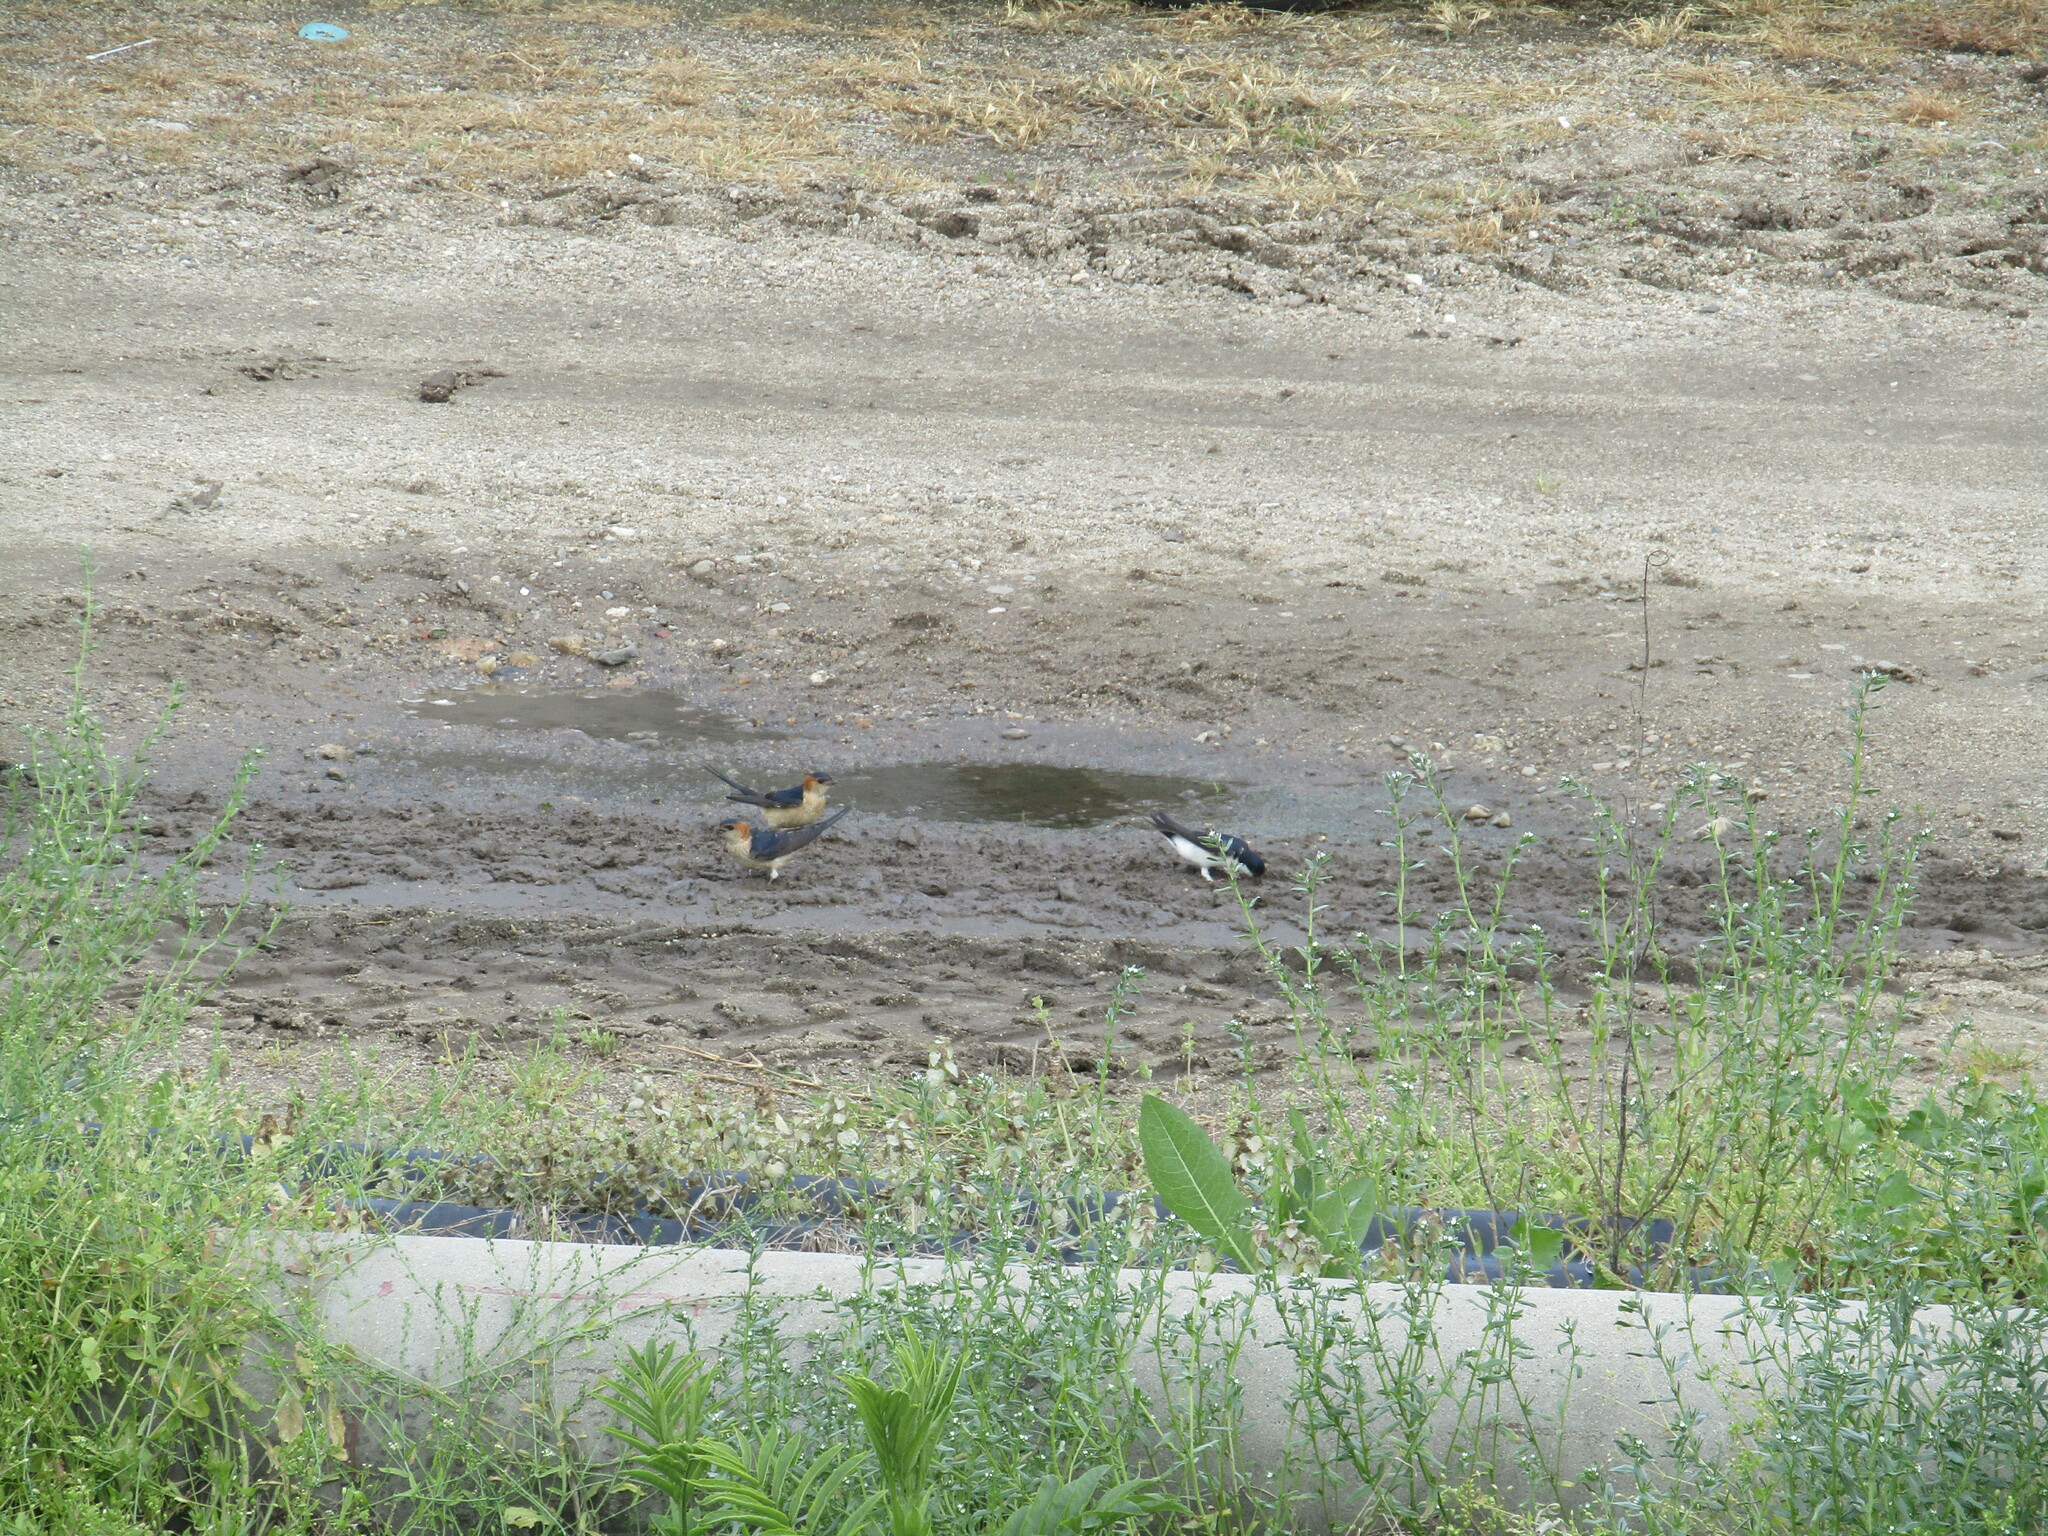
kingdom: Animalia
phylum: Chordata
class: Aves
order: Passeriformes
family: Hirundinidae
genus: Cecropis
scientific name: Cecropis daurica
